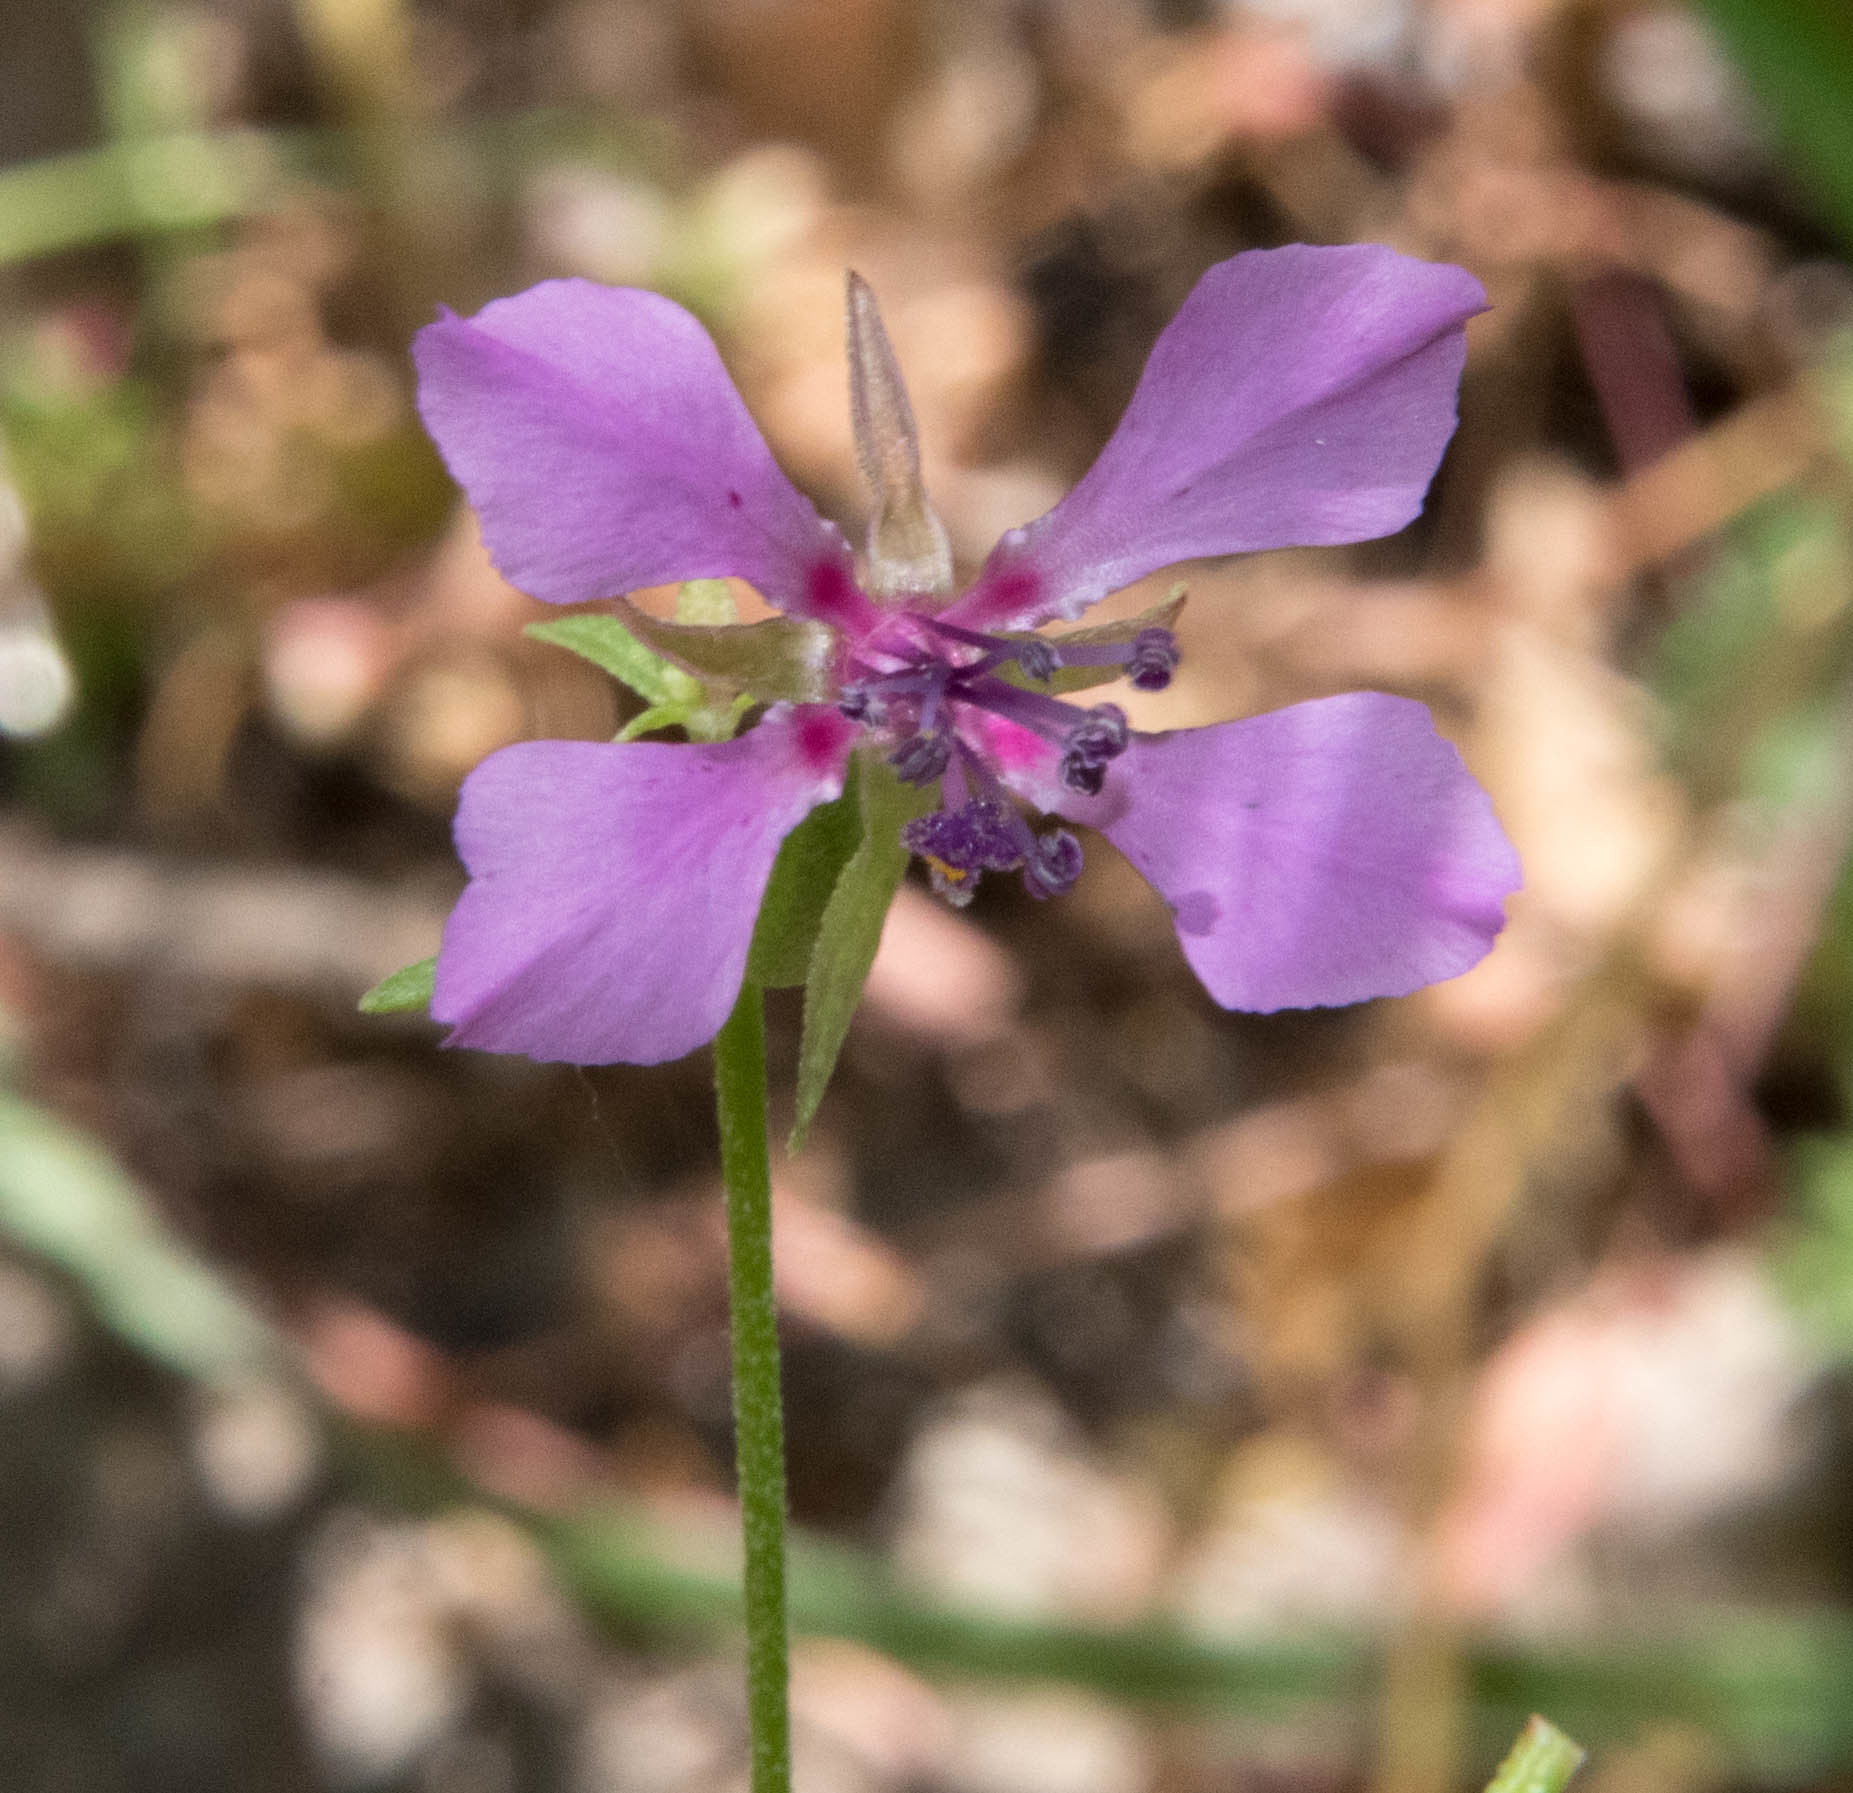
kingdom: Plantae
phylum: Tracheophyta
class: Magnoliopsida
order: Myrtales
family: Onagraceae
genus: Clarkia
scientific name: Clarkia rhomboidea
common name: Broadleaf clarkia
